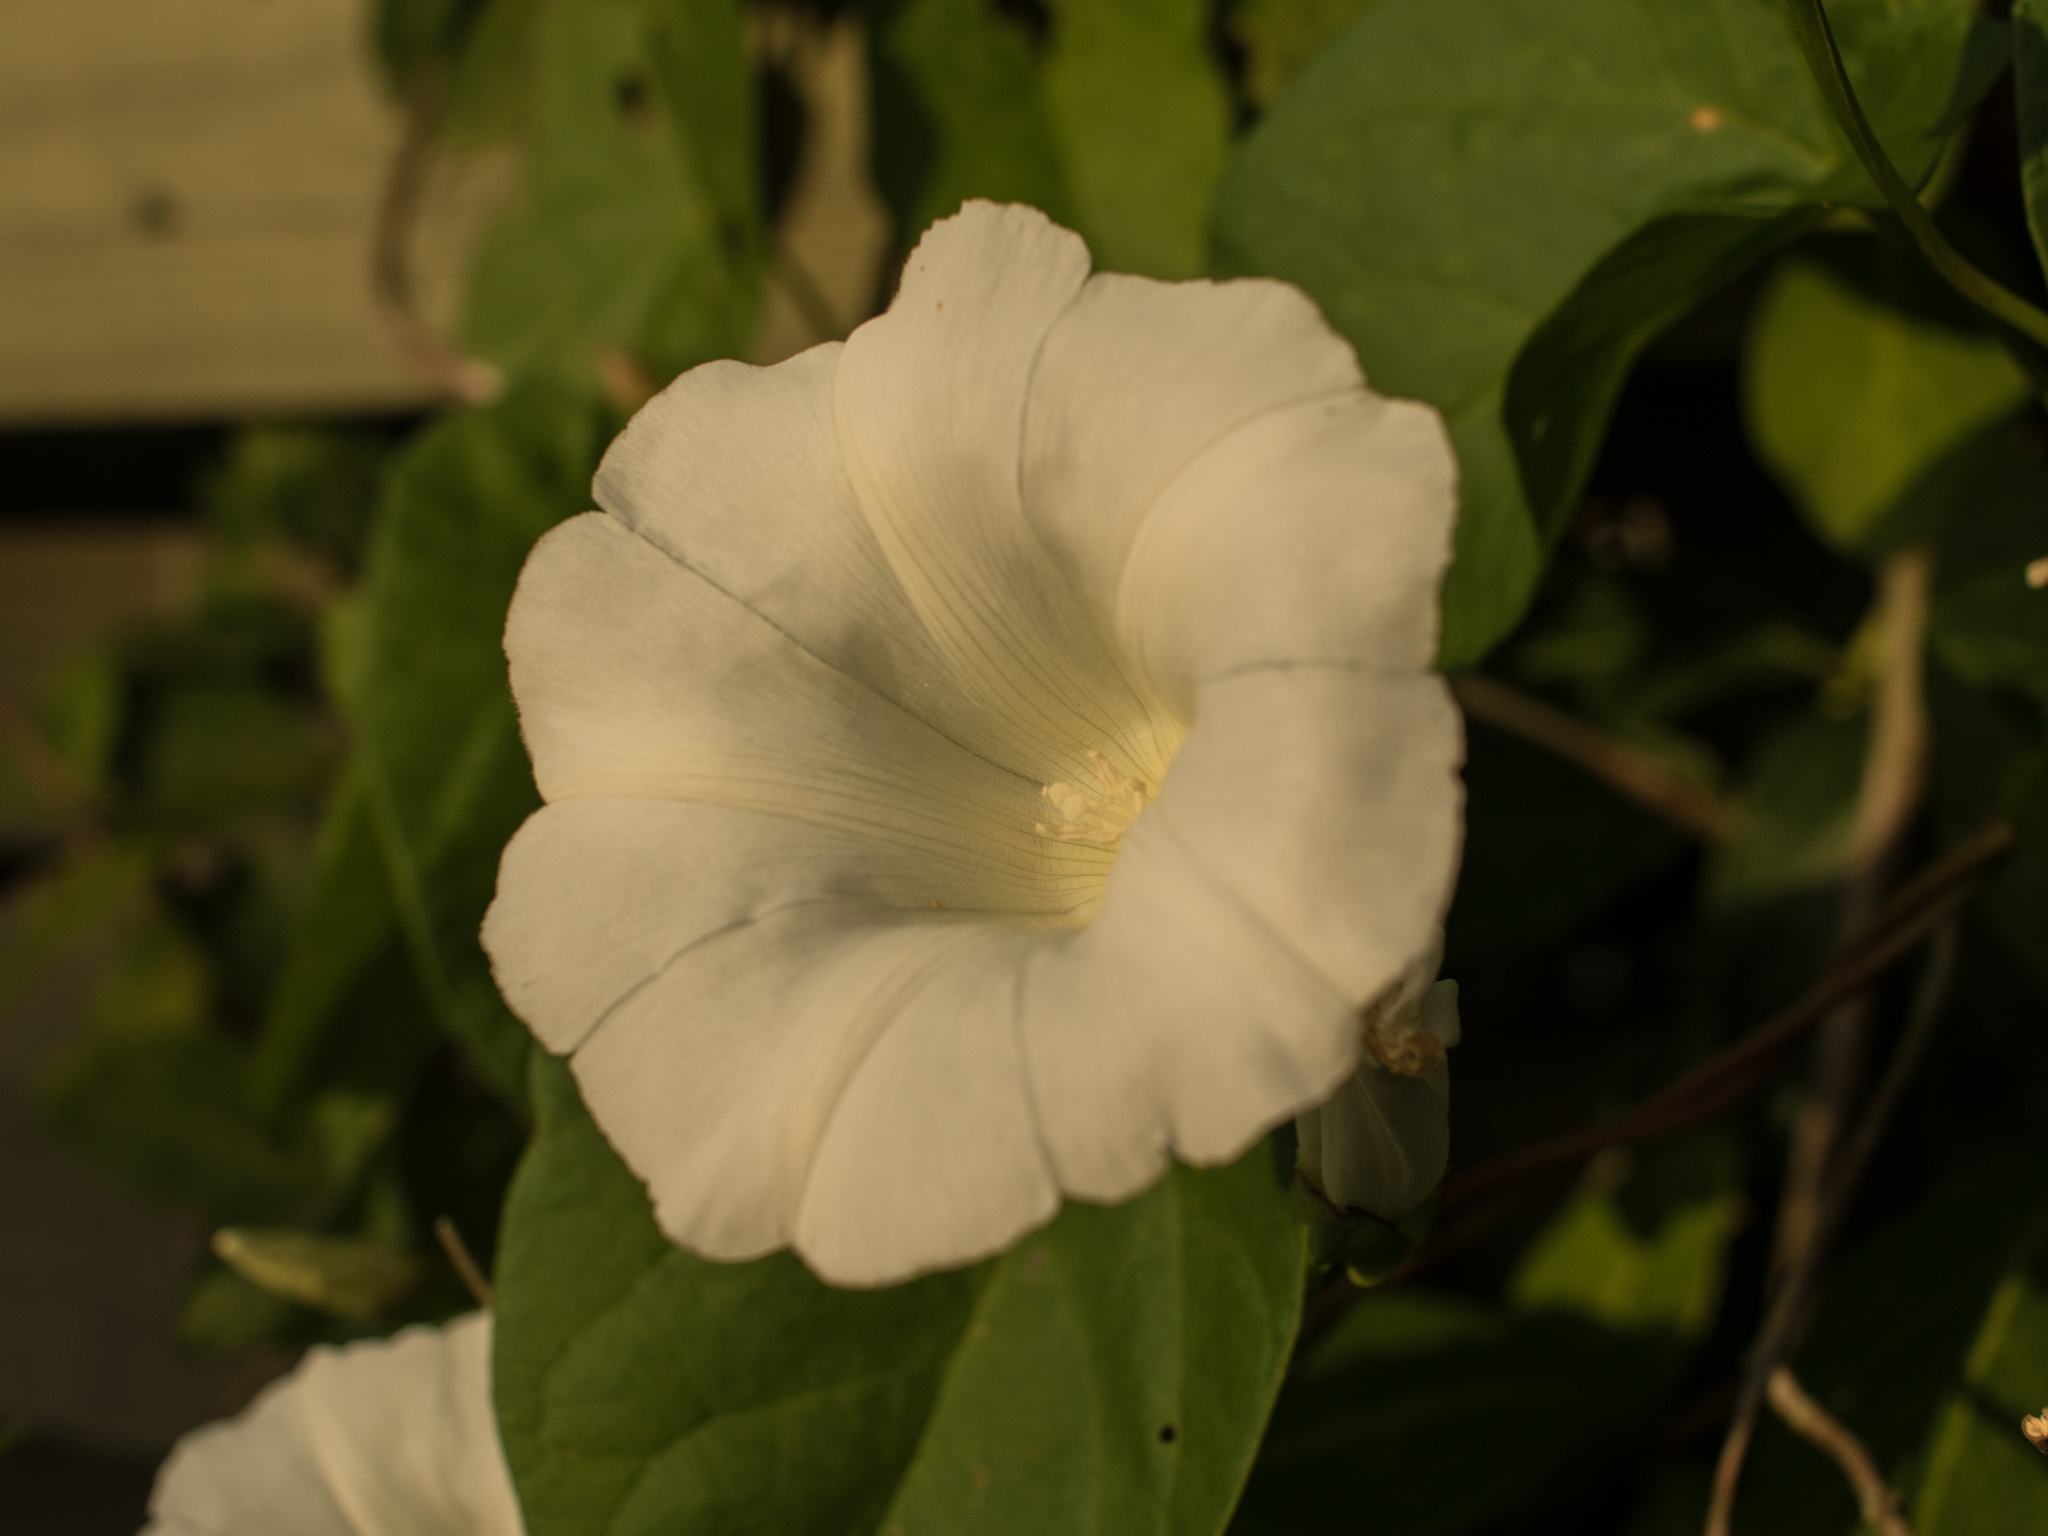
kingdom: Plantae
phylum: Tracheophyta
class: Magnoliopsida
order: Solanales
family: Convolvulaceae
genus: Calystegia
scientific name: Calystegia sepium
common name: Hedge bindweed
